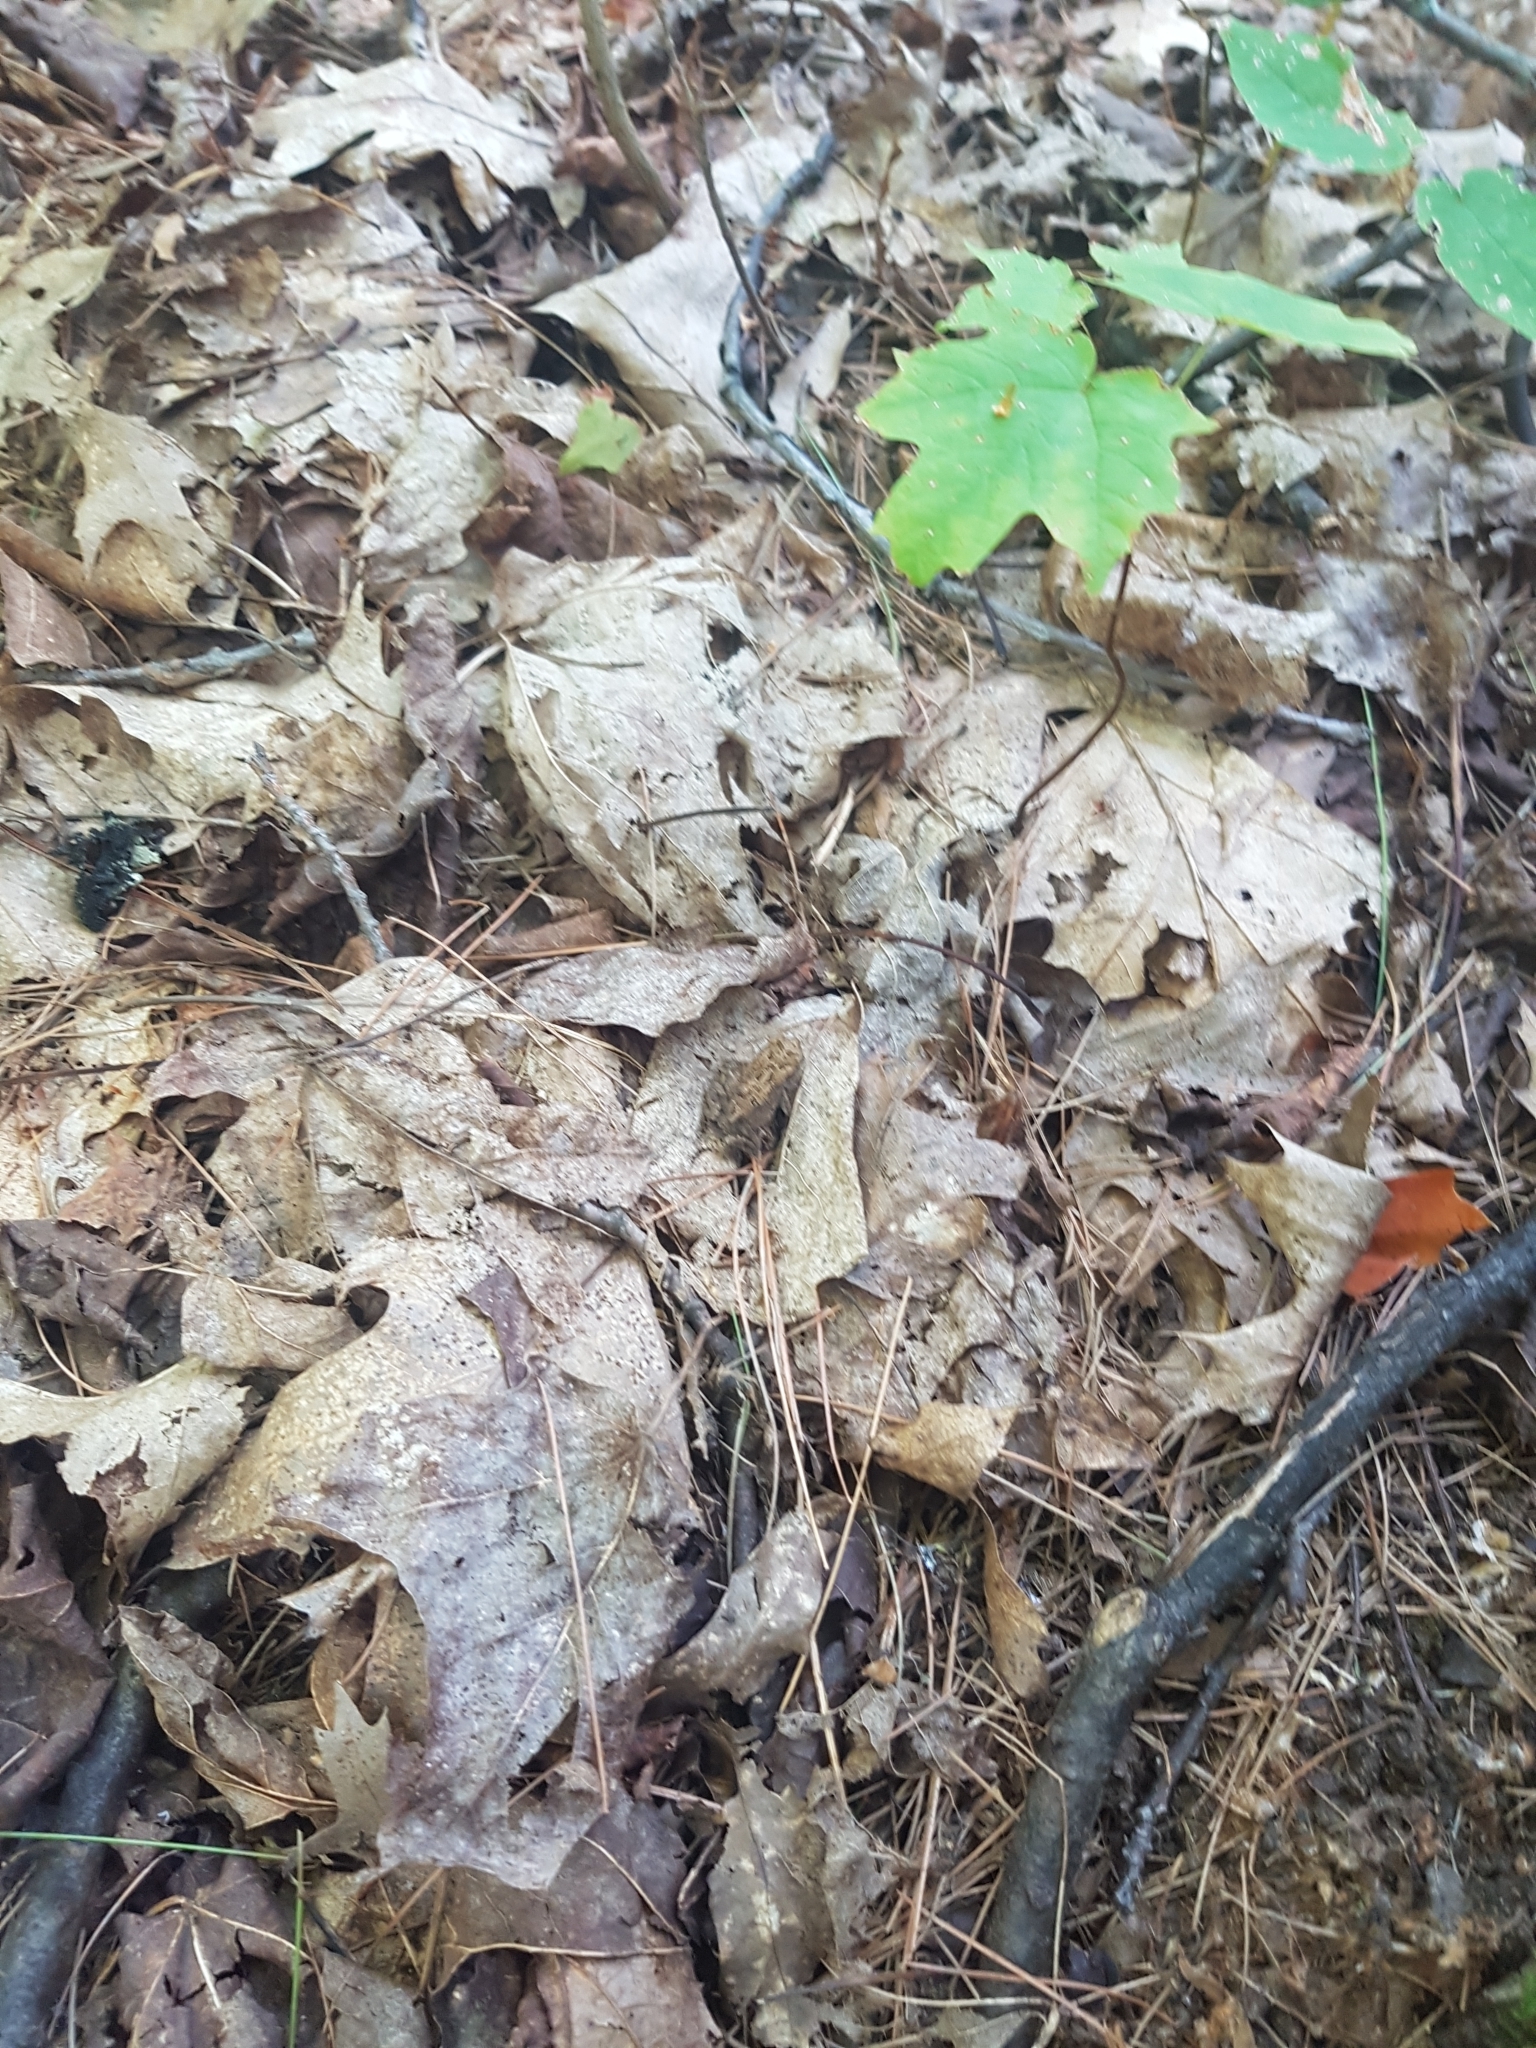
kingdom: Animalia
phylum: Chordata
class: Amphibia
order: Anura
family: Bufonidae
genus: Anaxyrus
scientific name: Anaxyrus americanus
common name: American toad
